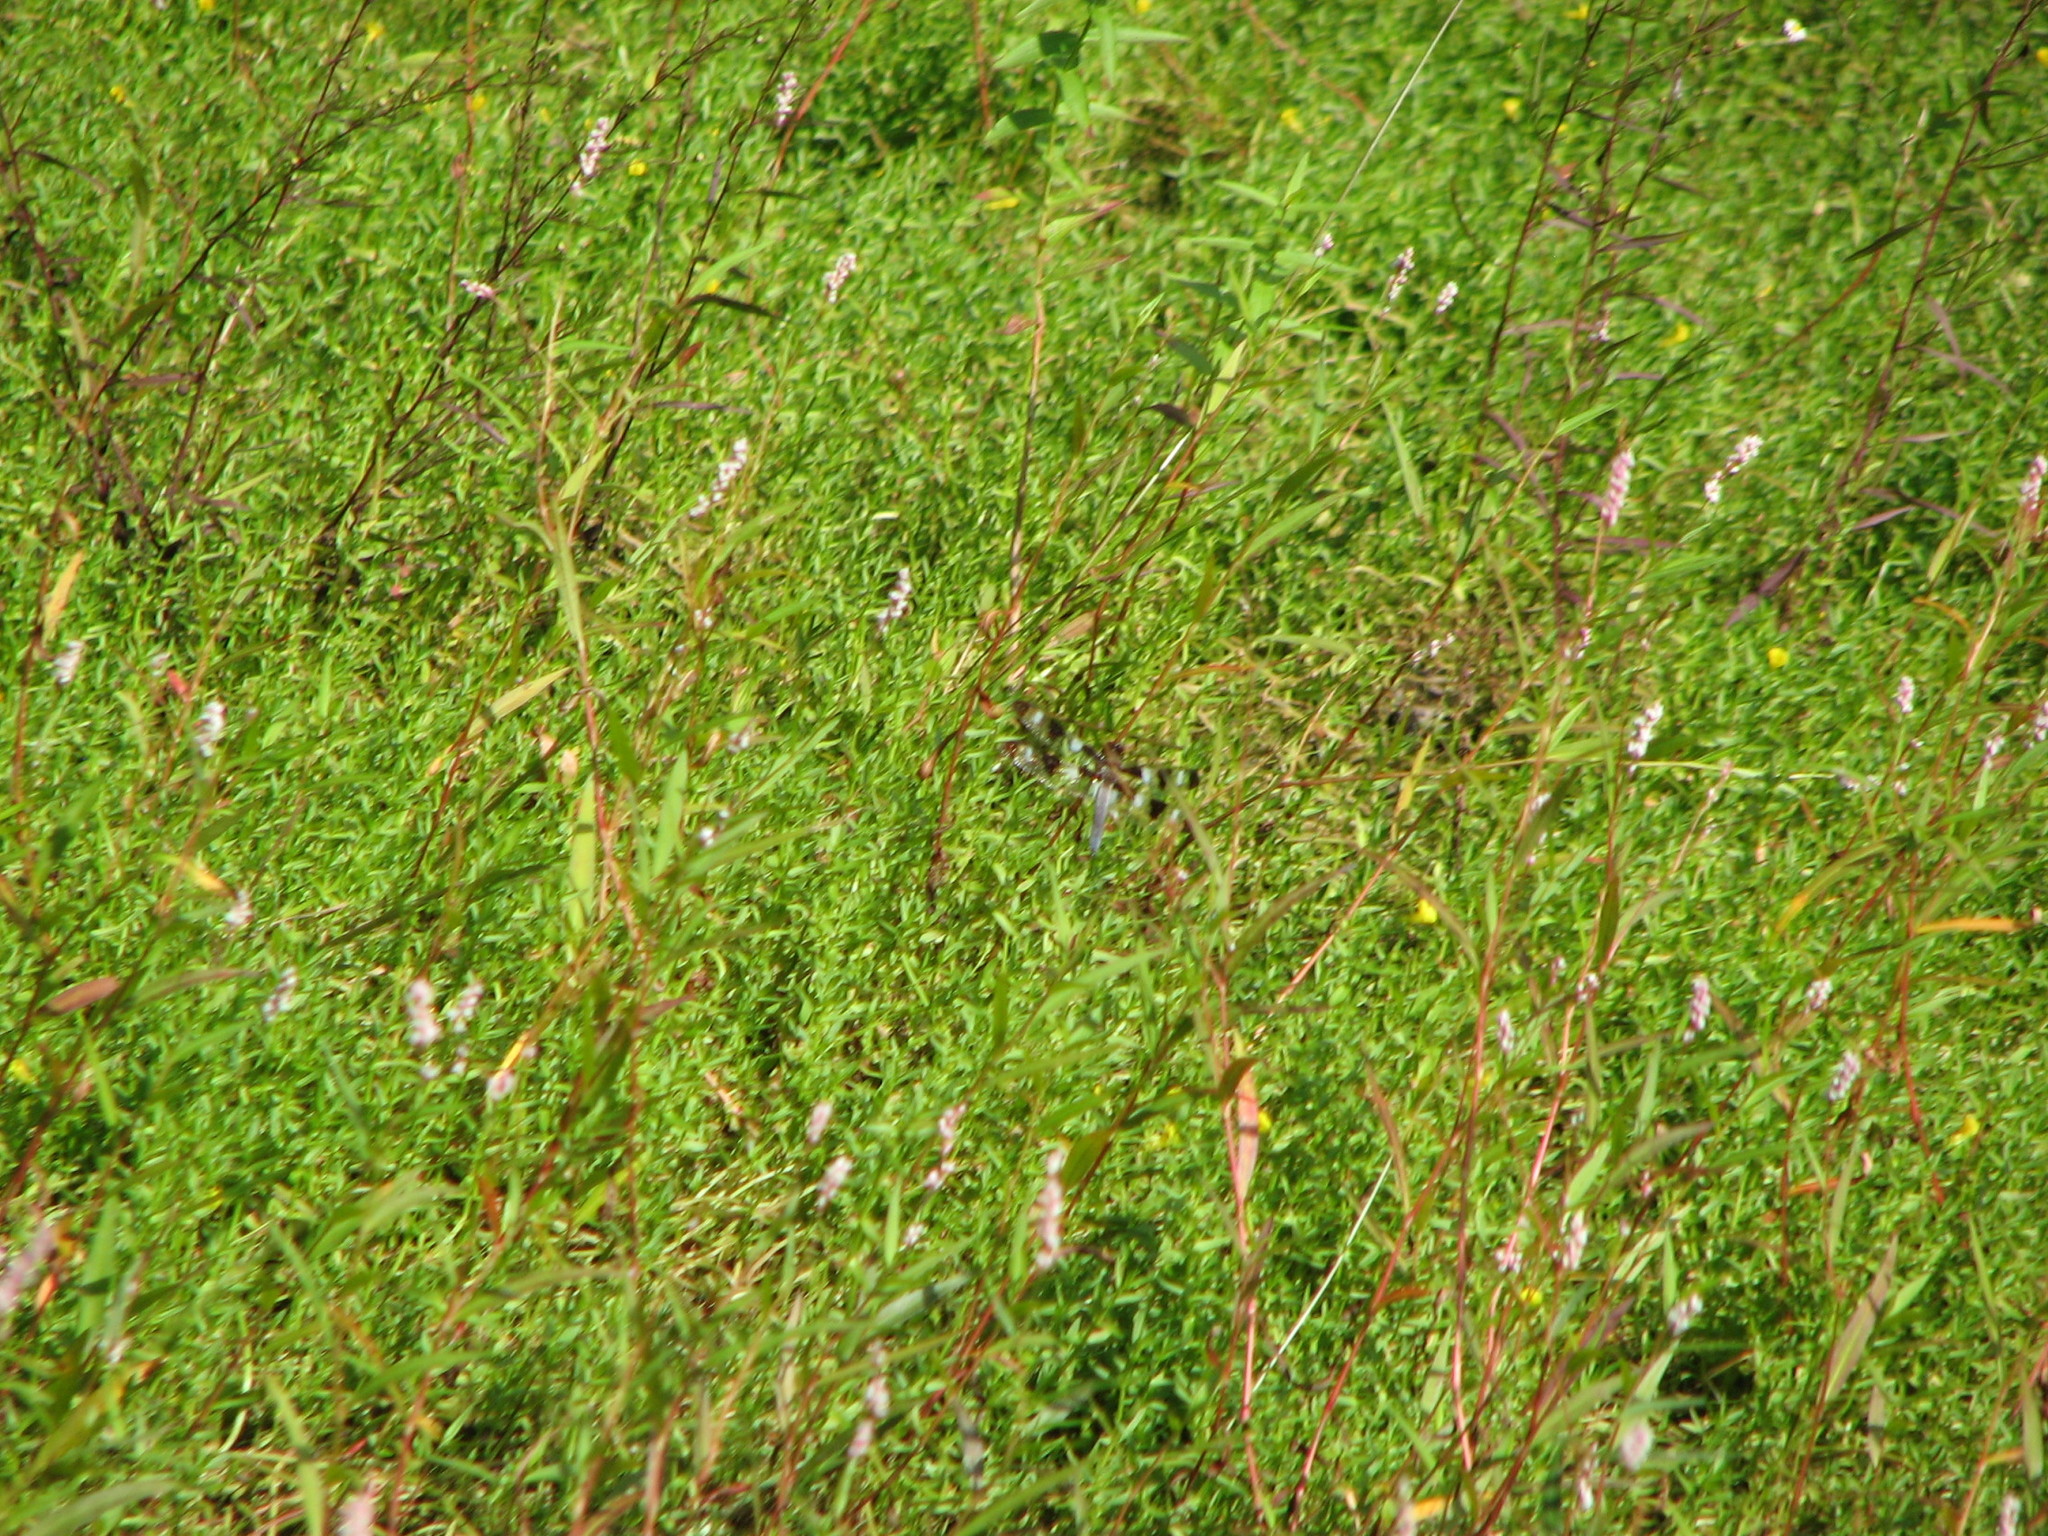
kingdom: Animalia
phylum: Arthropoda
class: Insecta
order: Odonata
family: Libellulidae
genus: Libellula
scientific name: Libellula pulchella
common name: Twelve-spotted skimmer
